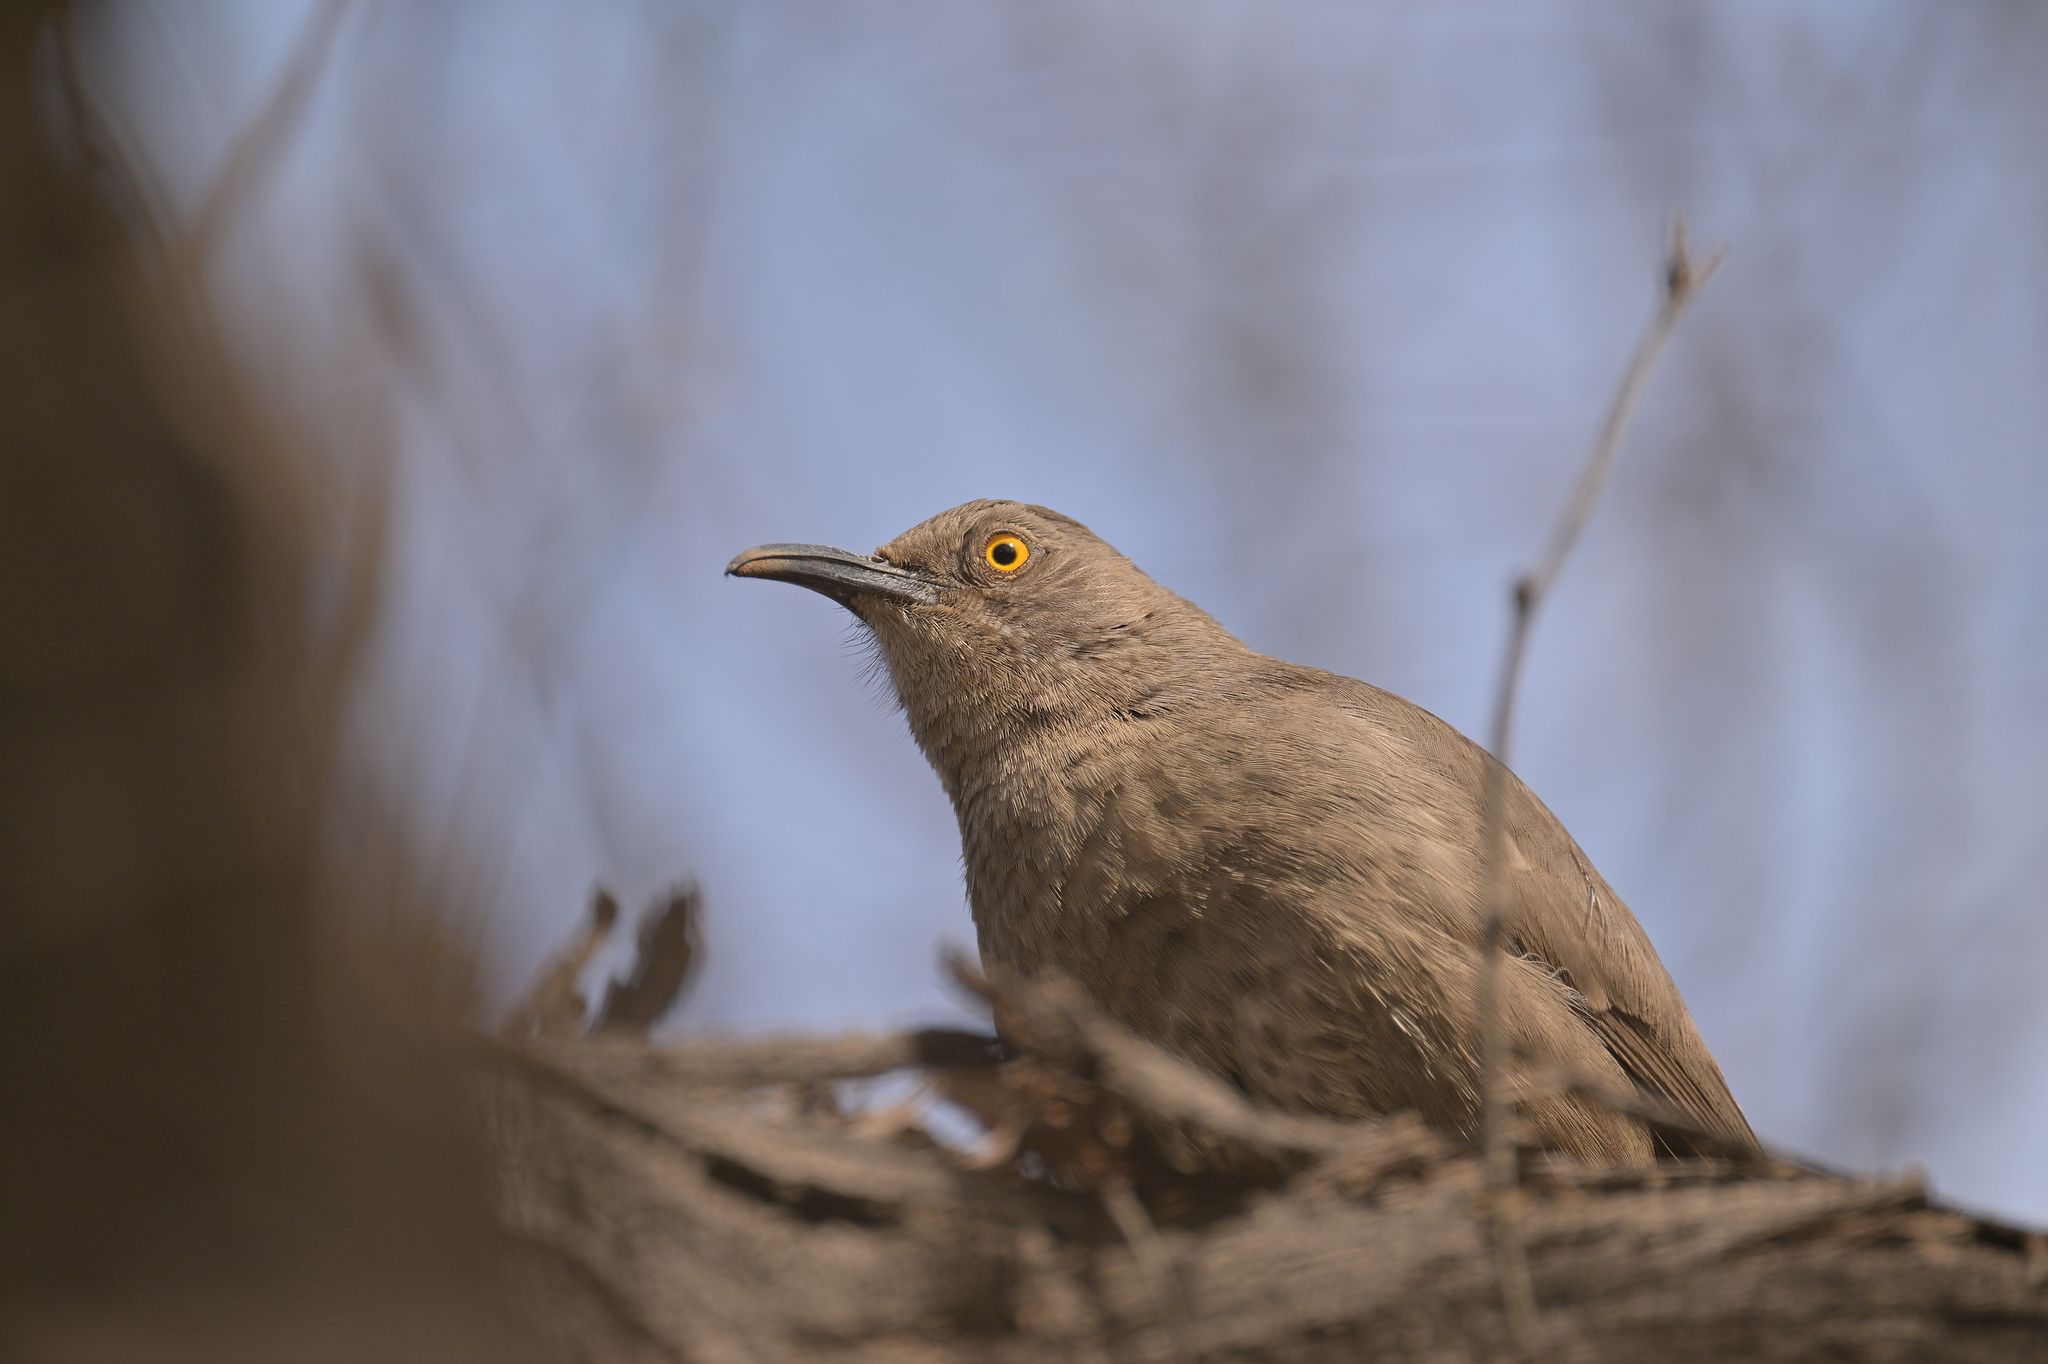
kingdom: Animalia
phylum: Chordata
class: Aves
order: Passeriformes
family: Mimidae
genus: Toxostoma
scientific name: Toxostoma curvirostre
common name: Curve-billed thrasher
